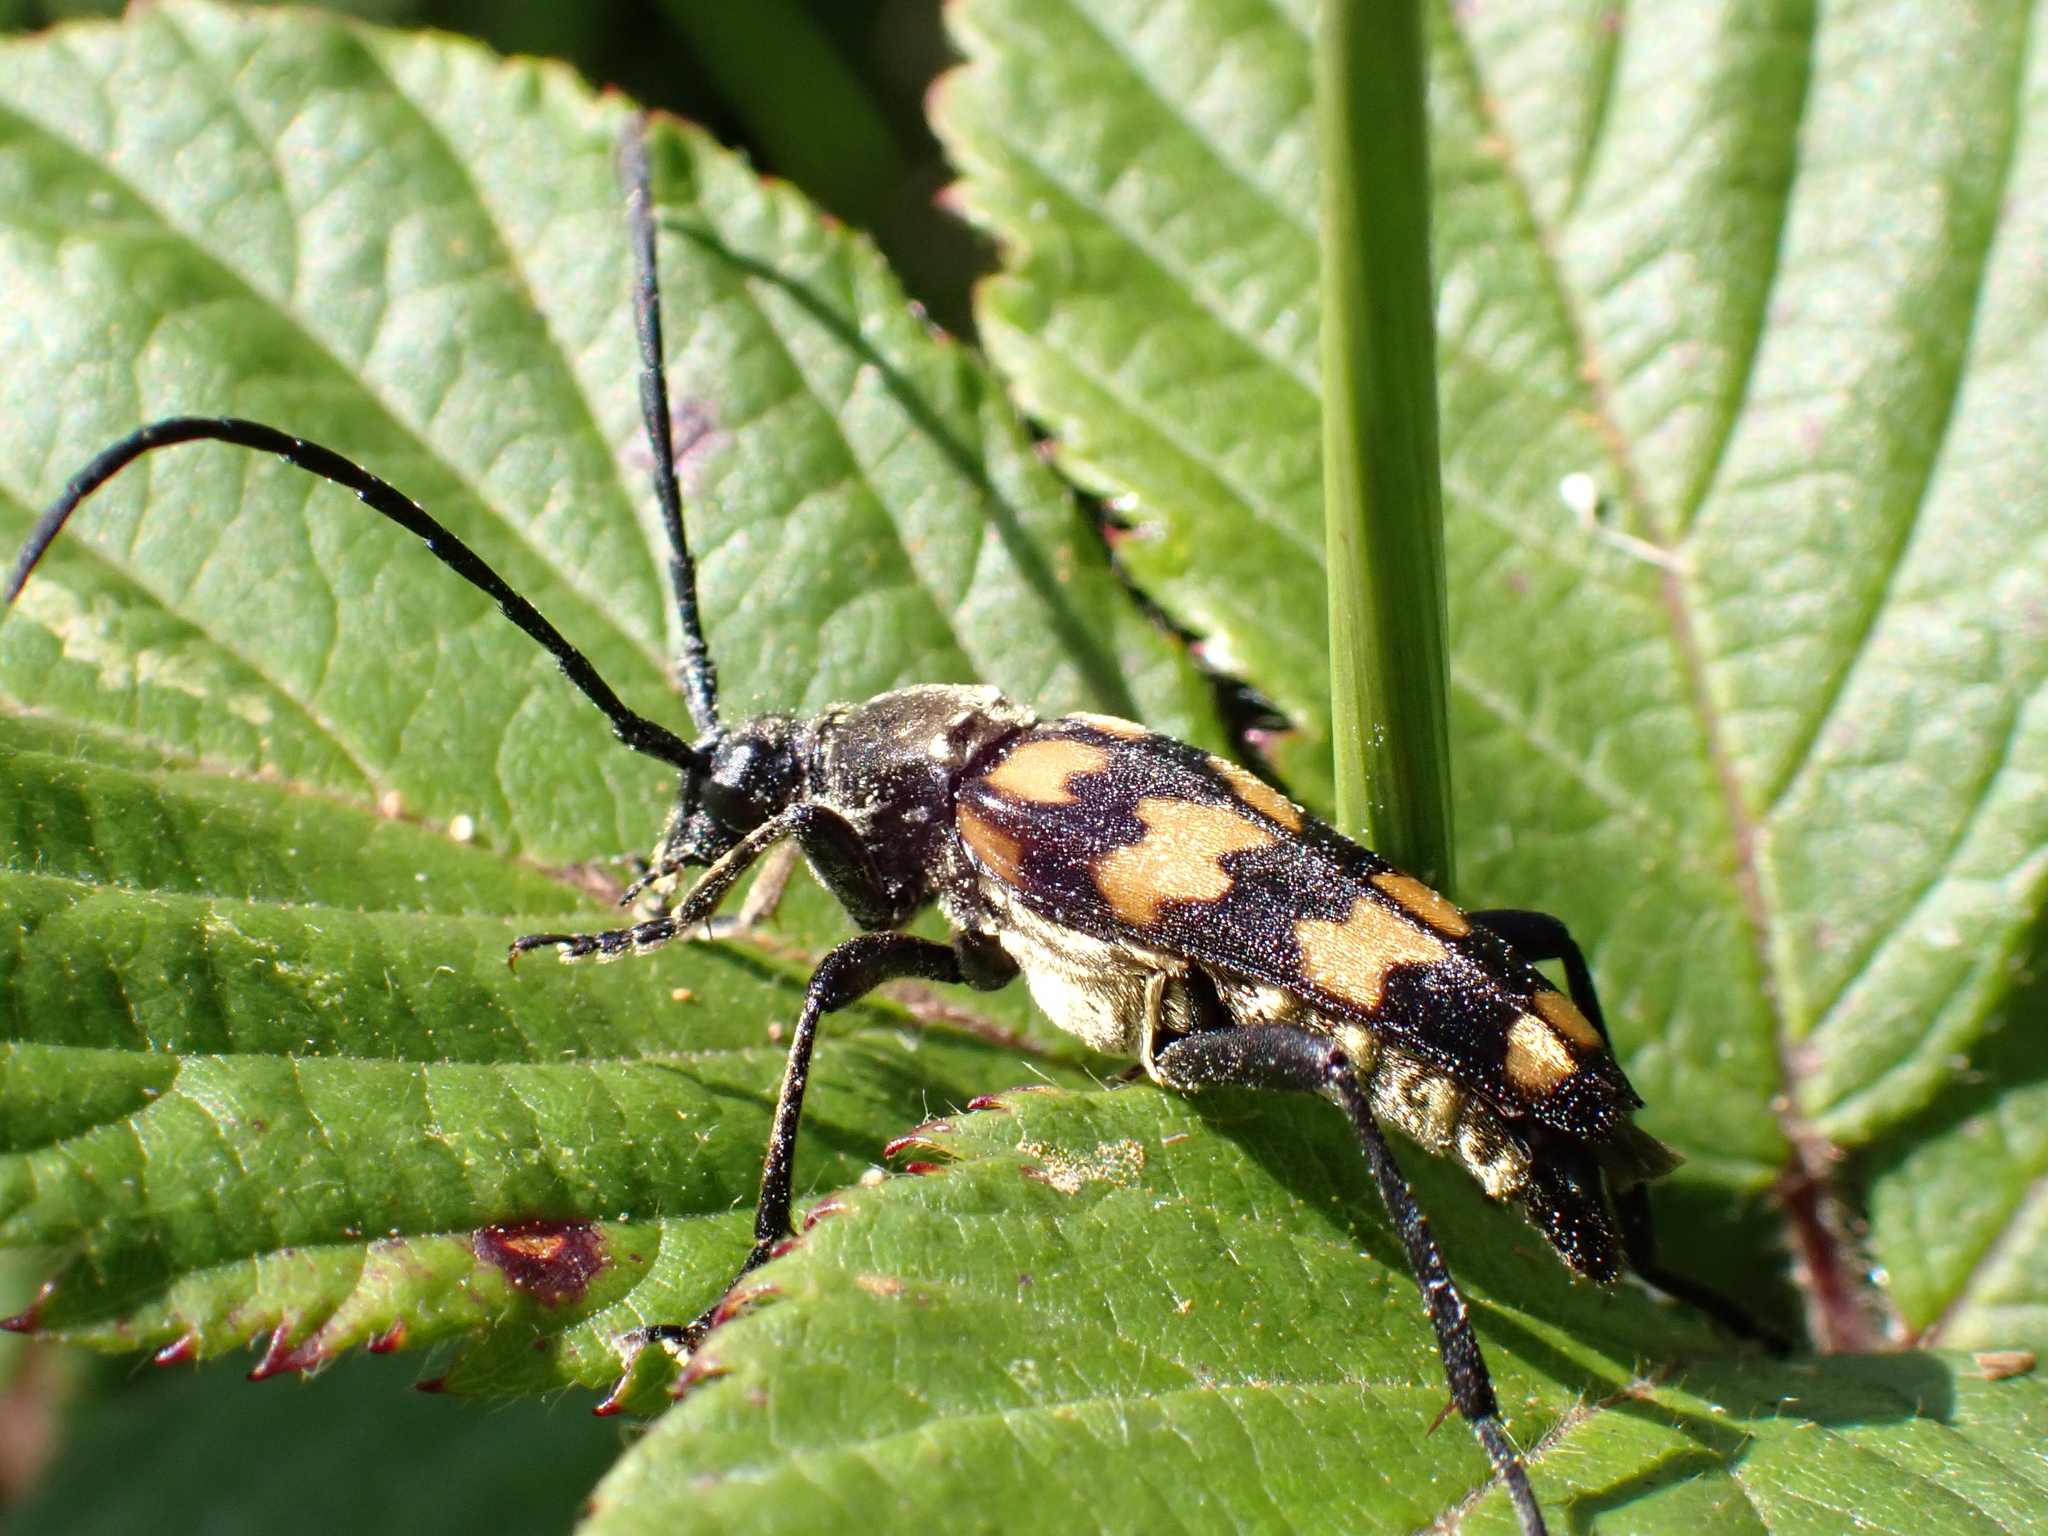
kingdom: Animalia
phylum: Arthropoda
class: Insecta
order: Coleoptera
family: Cerambycidae
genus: Leptura
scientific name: Leptura quadrifasciata
